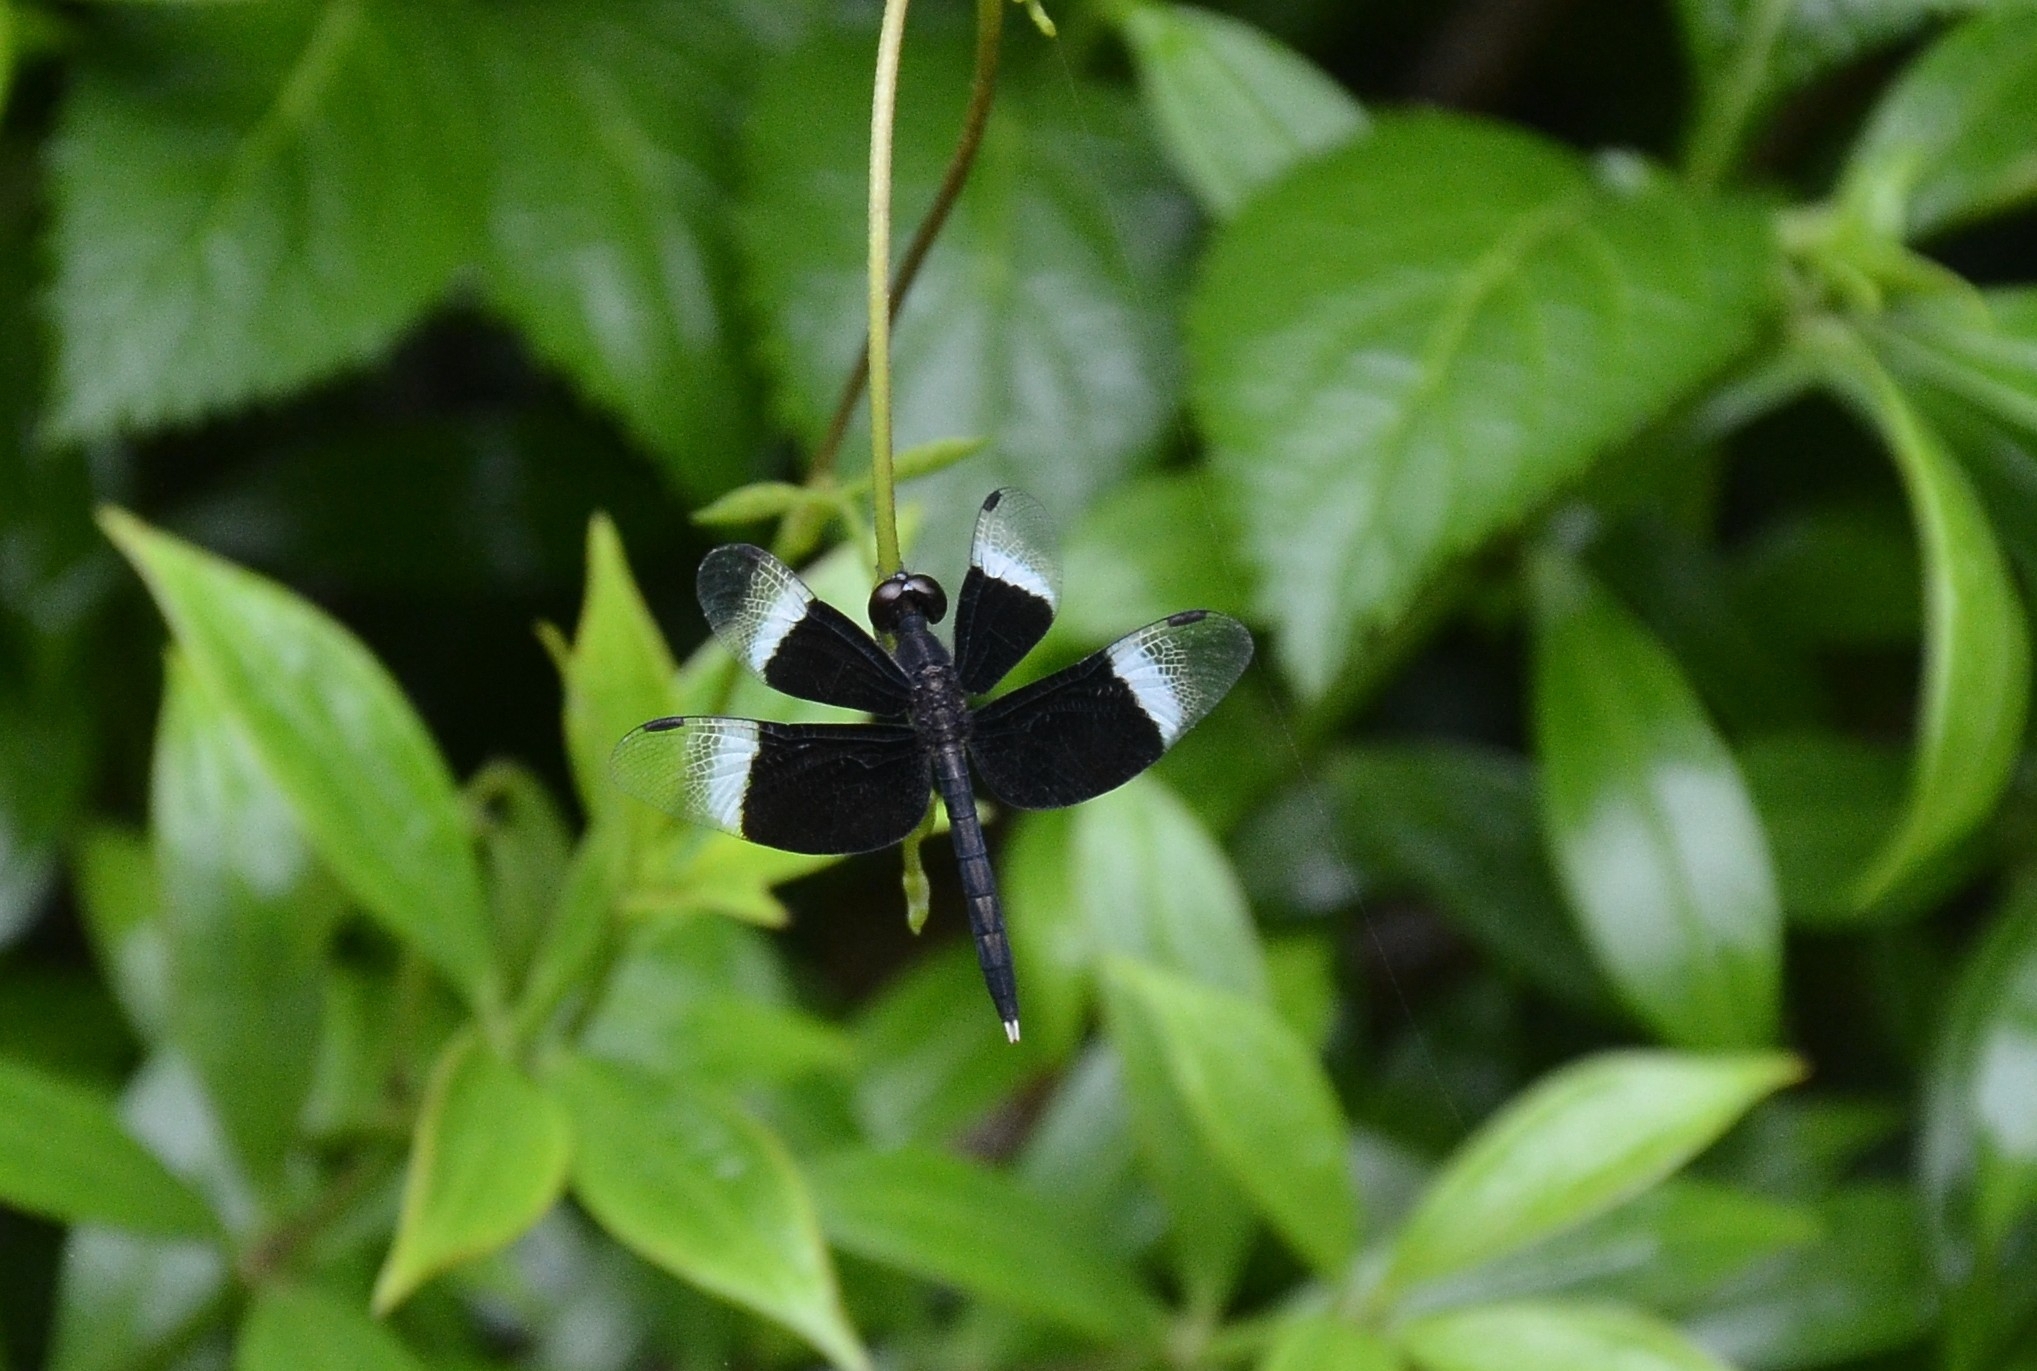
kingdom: Animalia
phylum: Arthropoda
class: Insecta
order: Odonata
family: Libellulidae
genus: Neurothemis
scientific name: Neurothemis tullia
